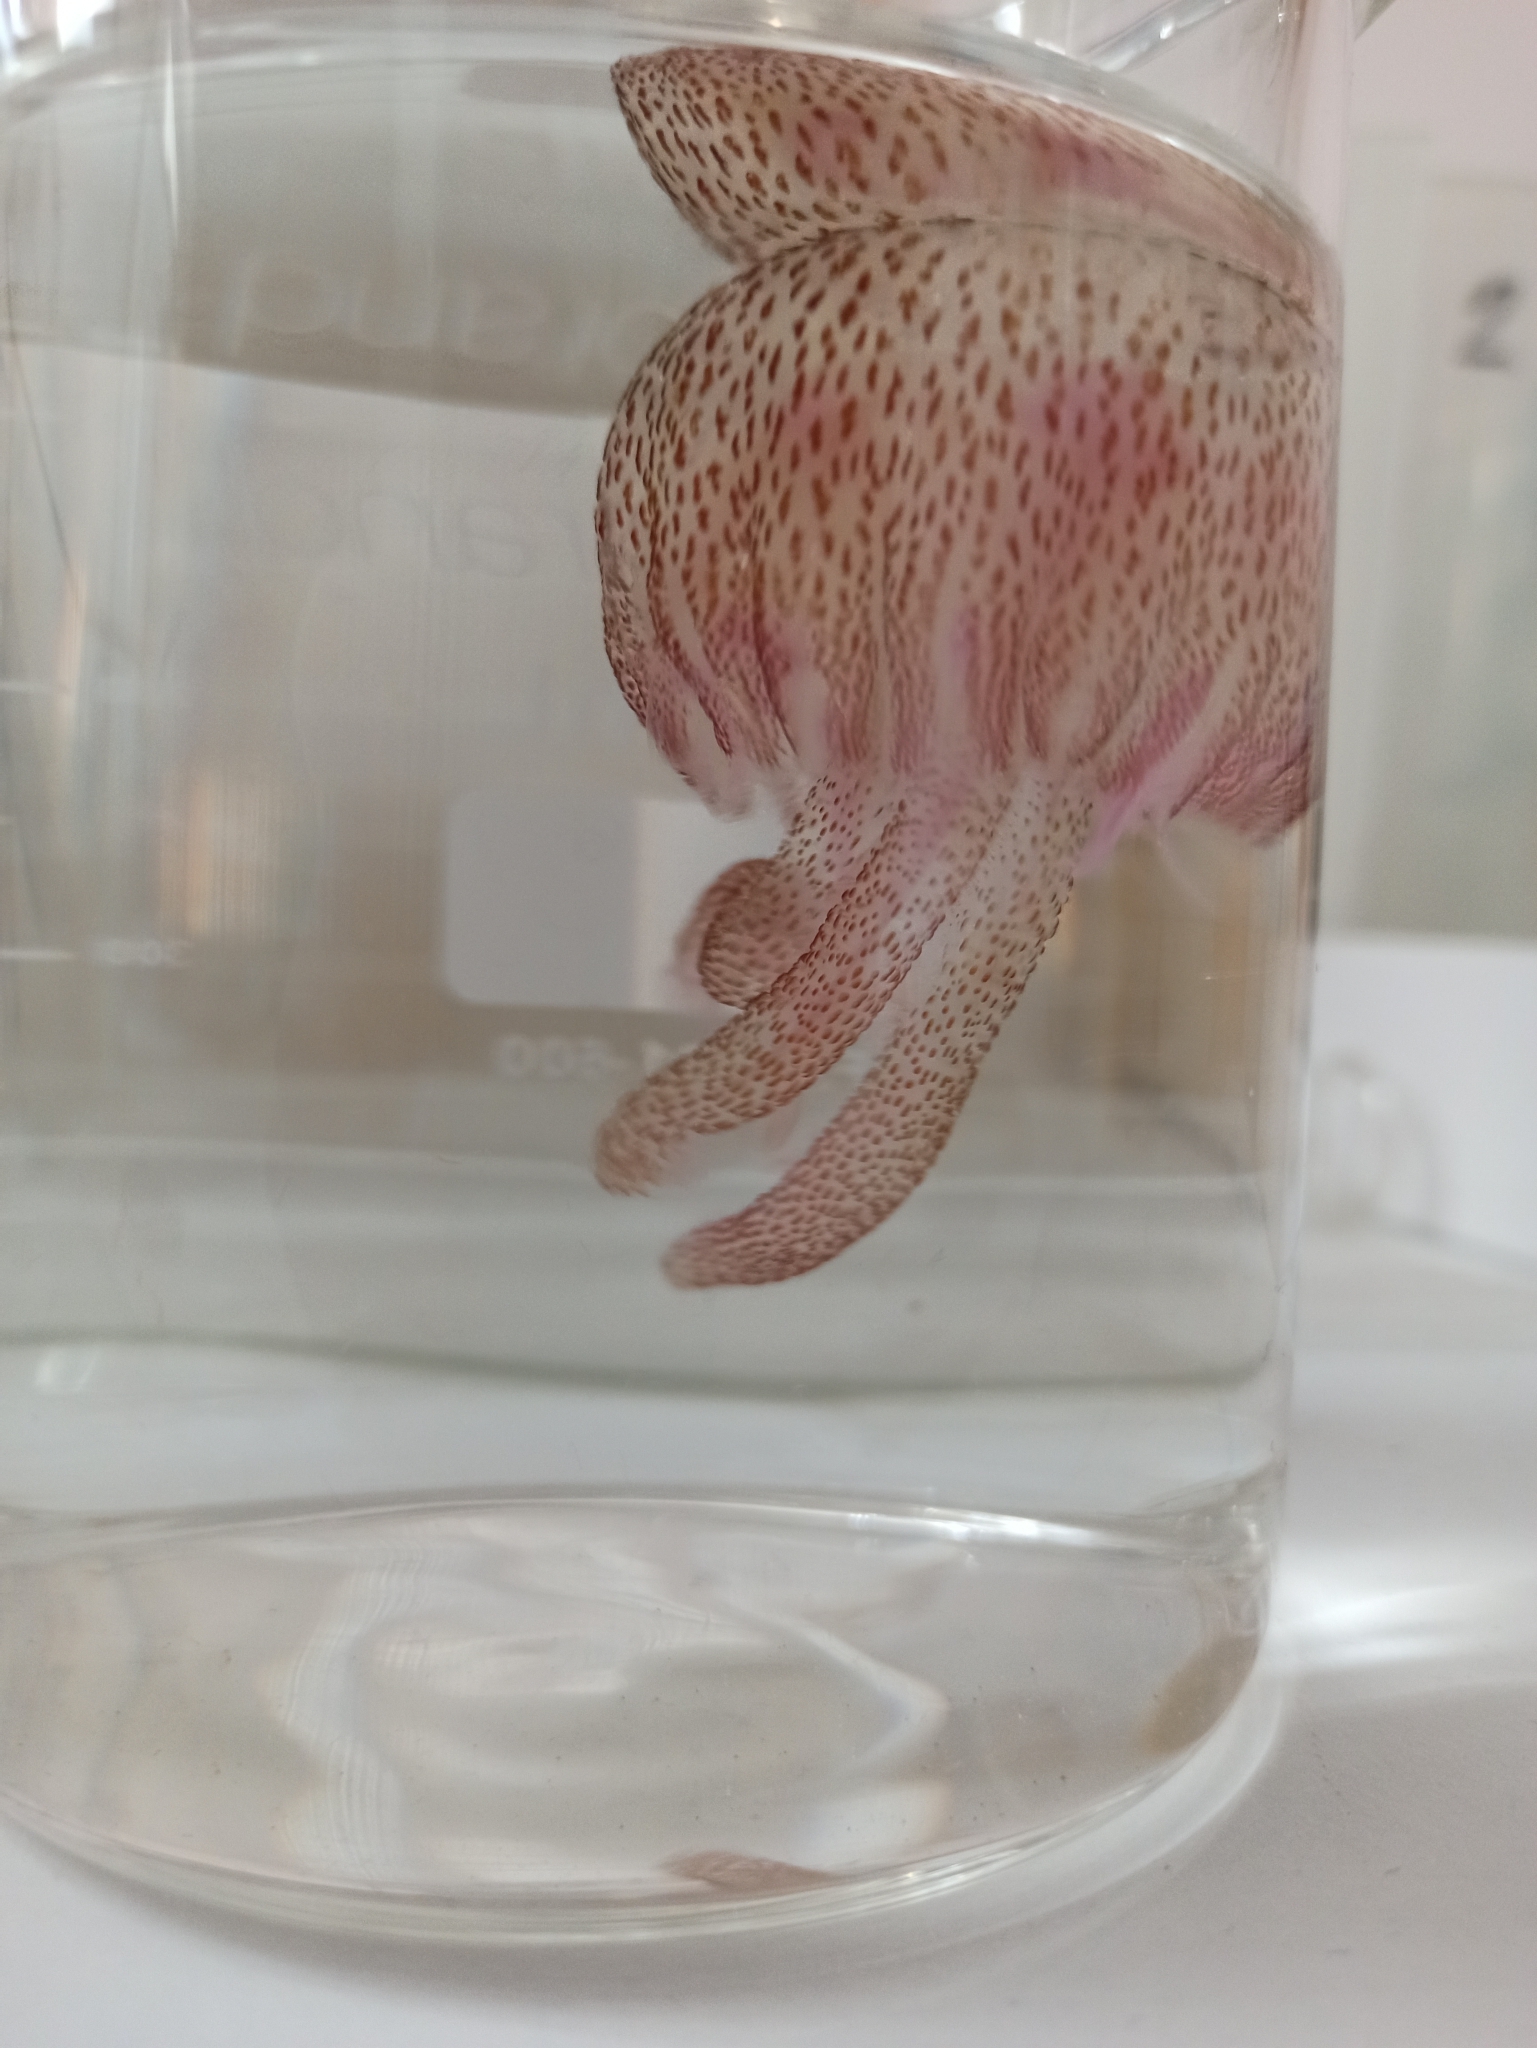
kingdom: Animalia
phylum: Cnidaria
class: Scyphozoa
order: Semaeostomeae
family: Pelagiidae
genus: Pelagia
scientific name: Pelagia noctiluca
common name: Mauve stinger
